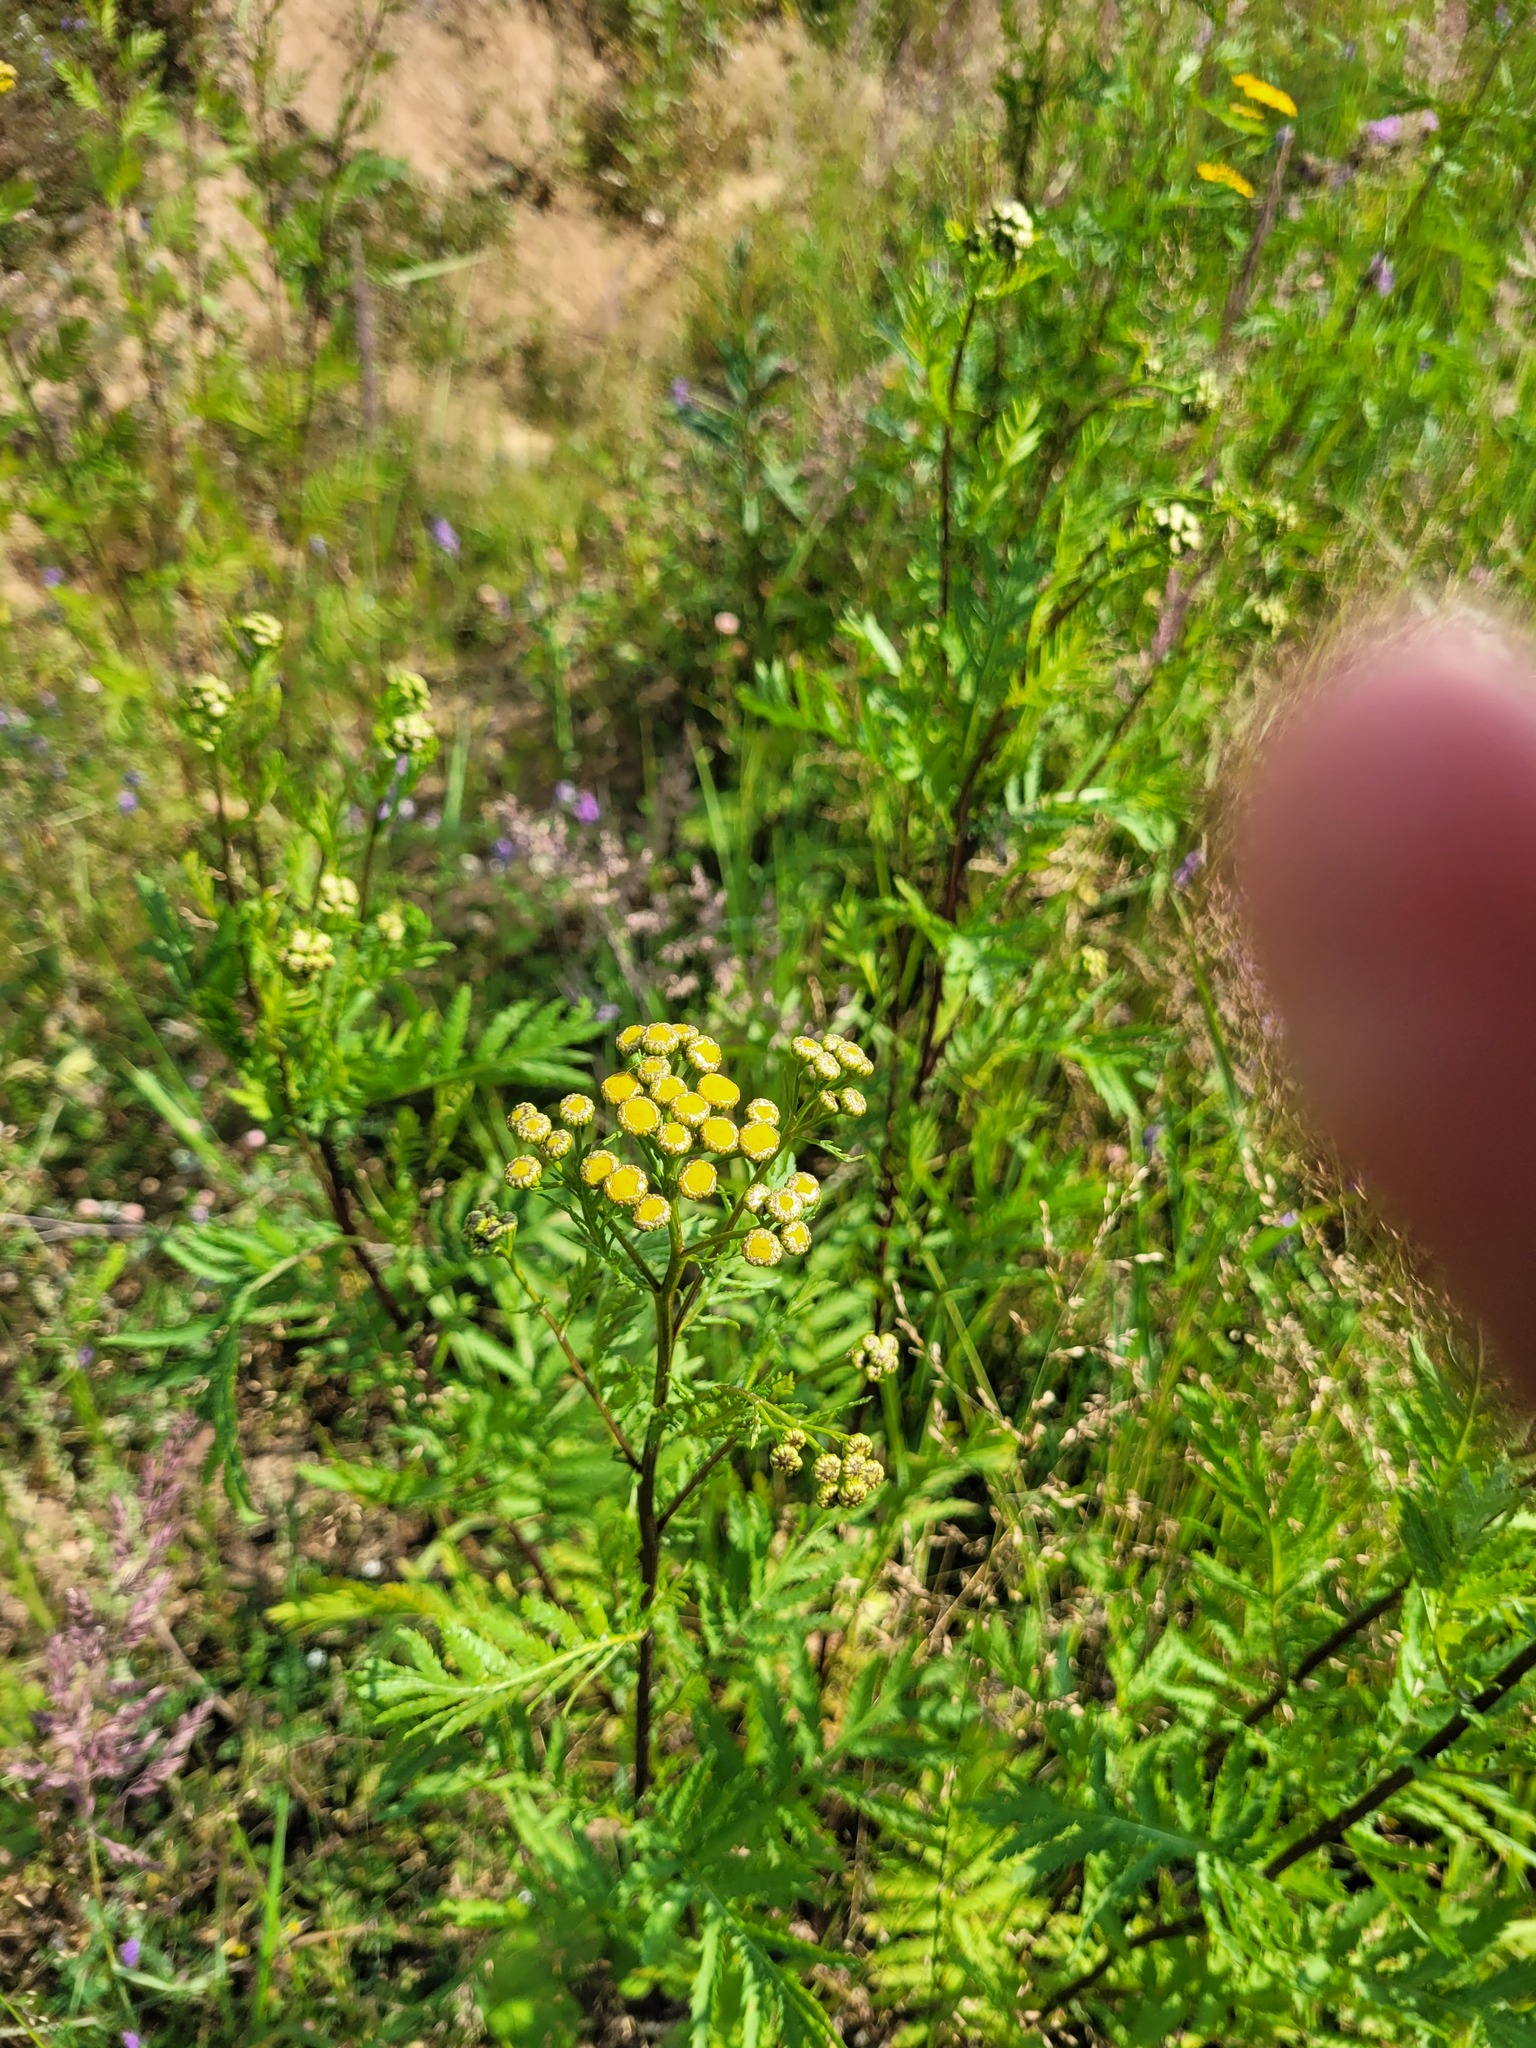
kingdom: Plantae
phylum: Tracheophyta
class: Magnoliopsida
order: Asterales
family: Asteraceae
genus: Tanacetum
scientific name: Tanacetum vulgare
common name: Common tansy
